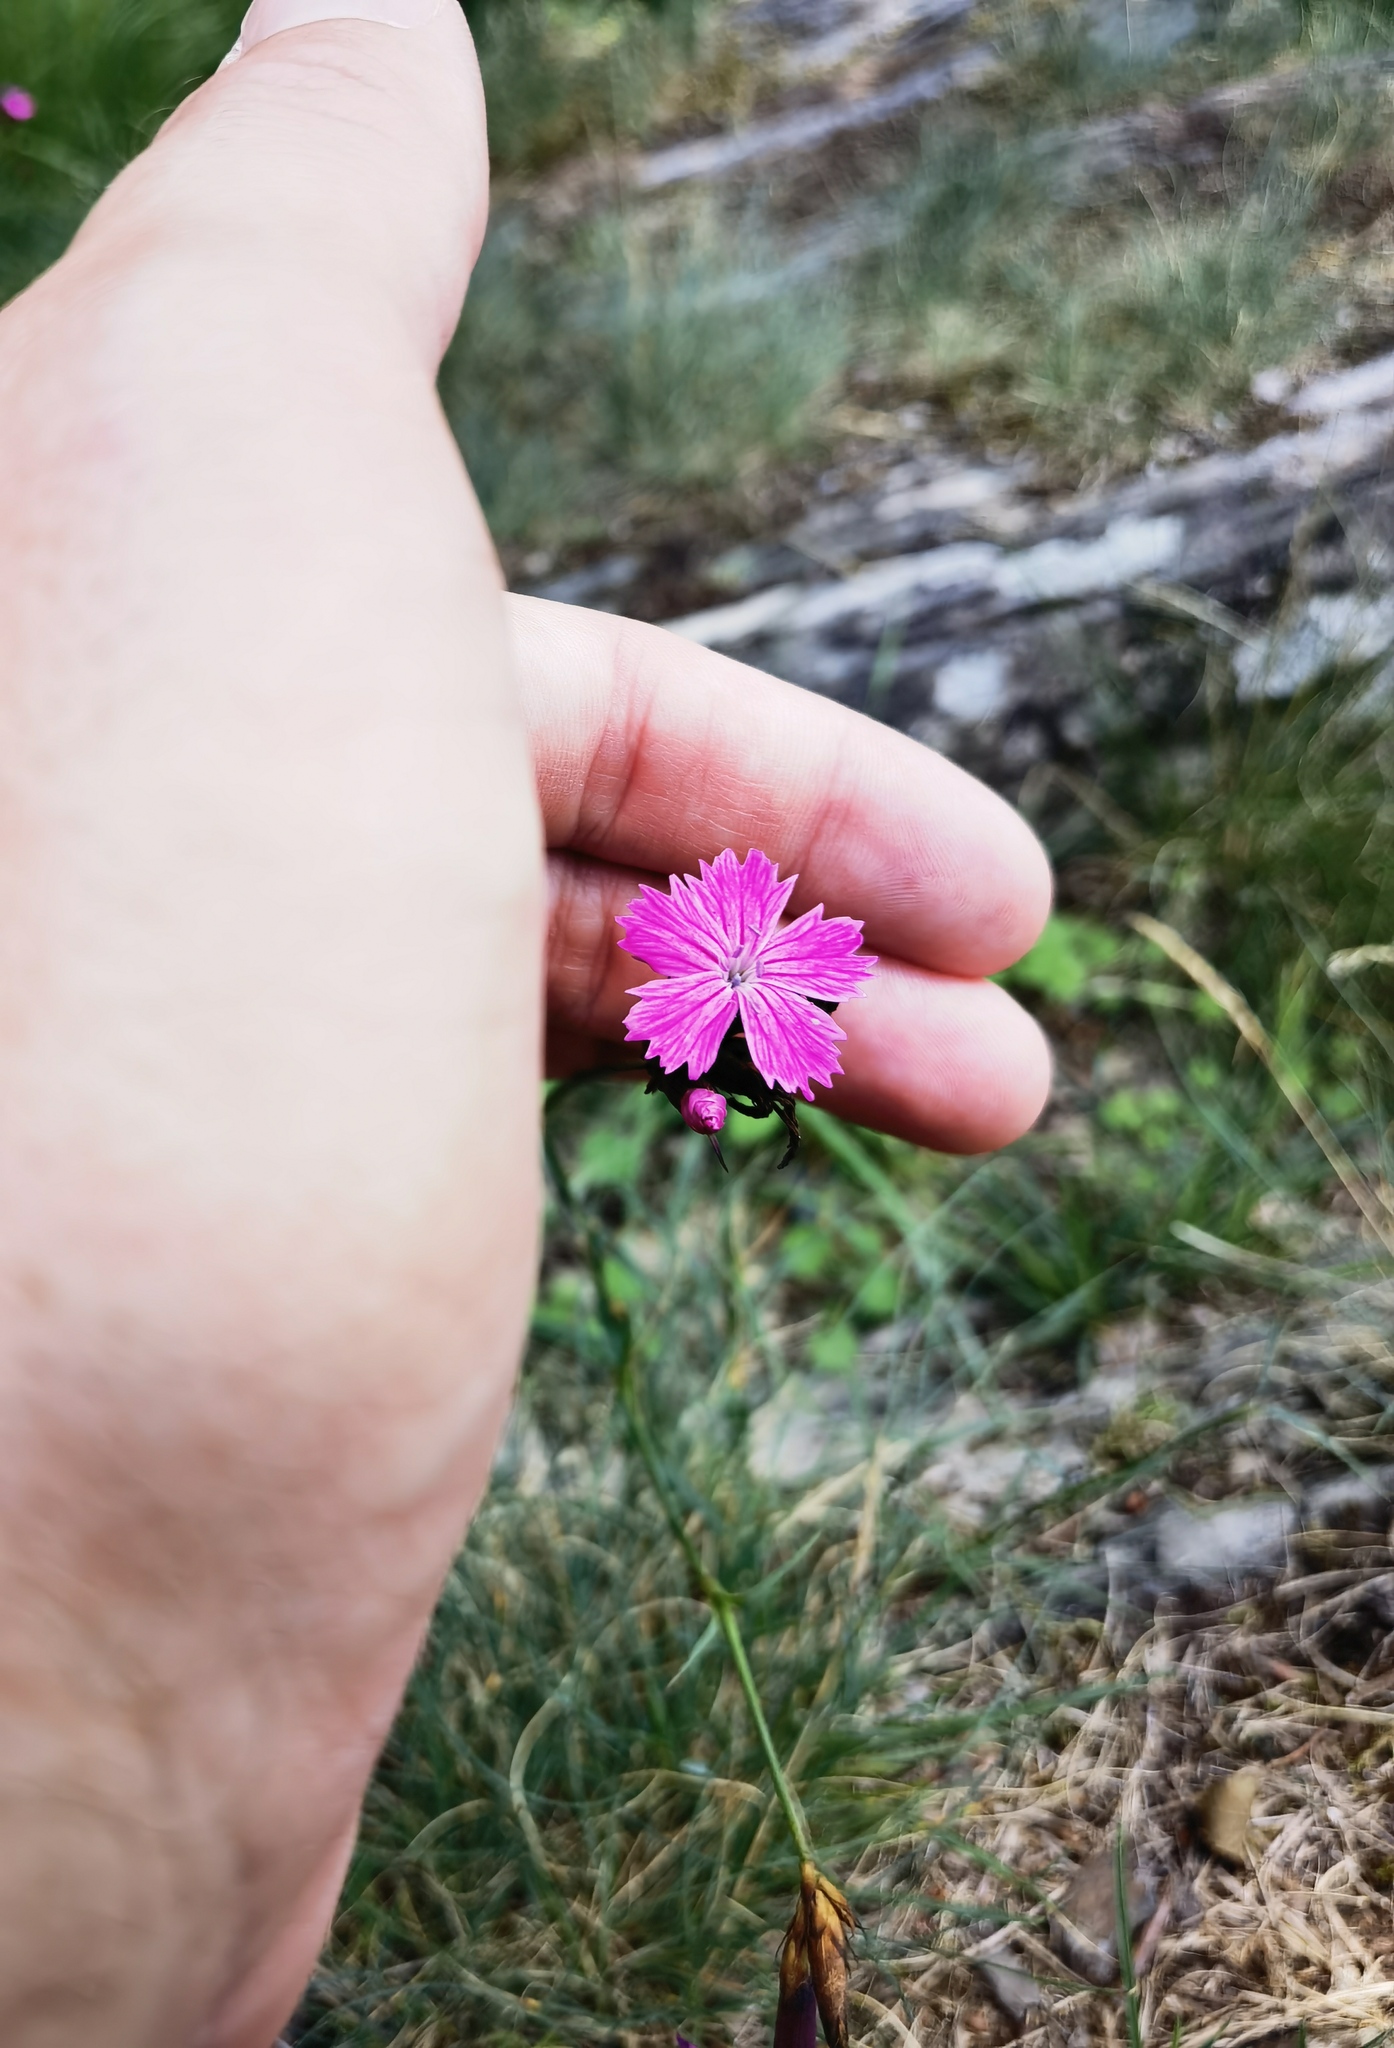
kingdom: Plantae
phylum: Tracheophyta
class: Magnoliopsida
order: Caryophyllales
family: Caryophyllaceae
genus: Dianthus
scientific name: Dianthus carthusianorum
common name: Carthusian pink
